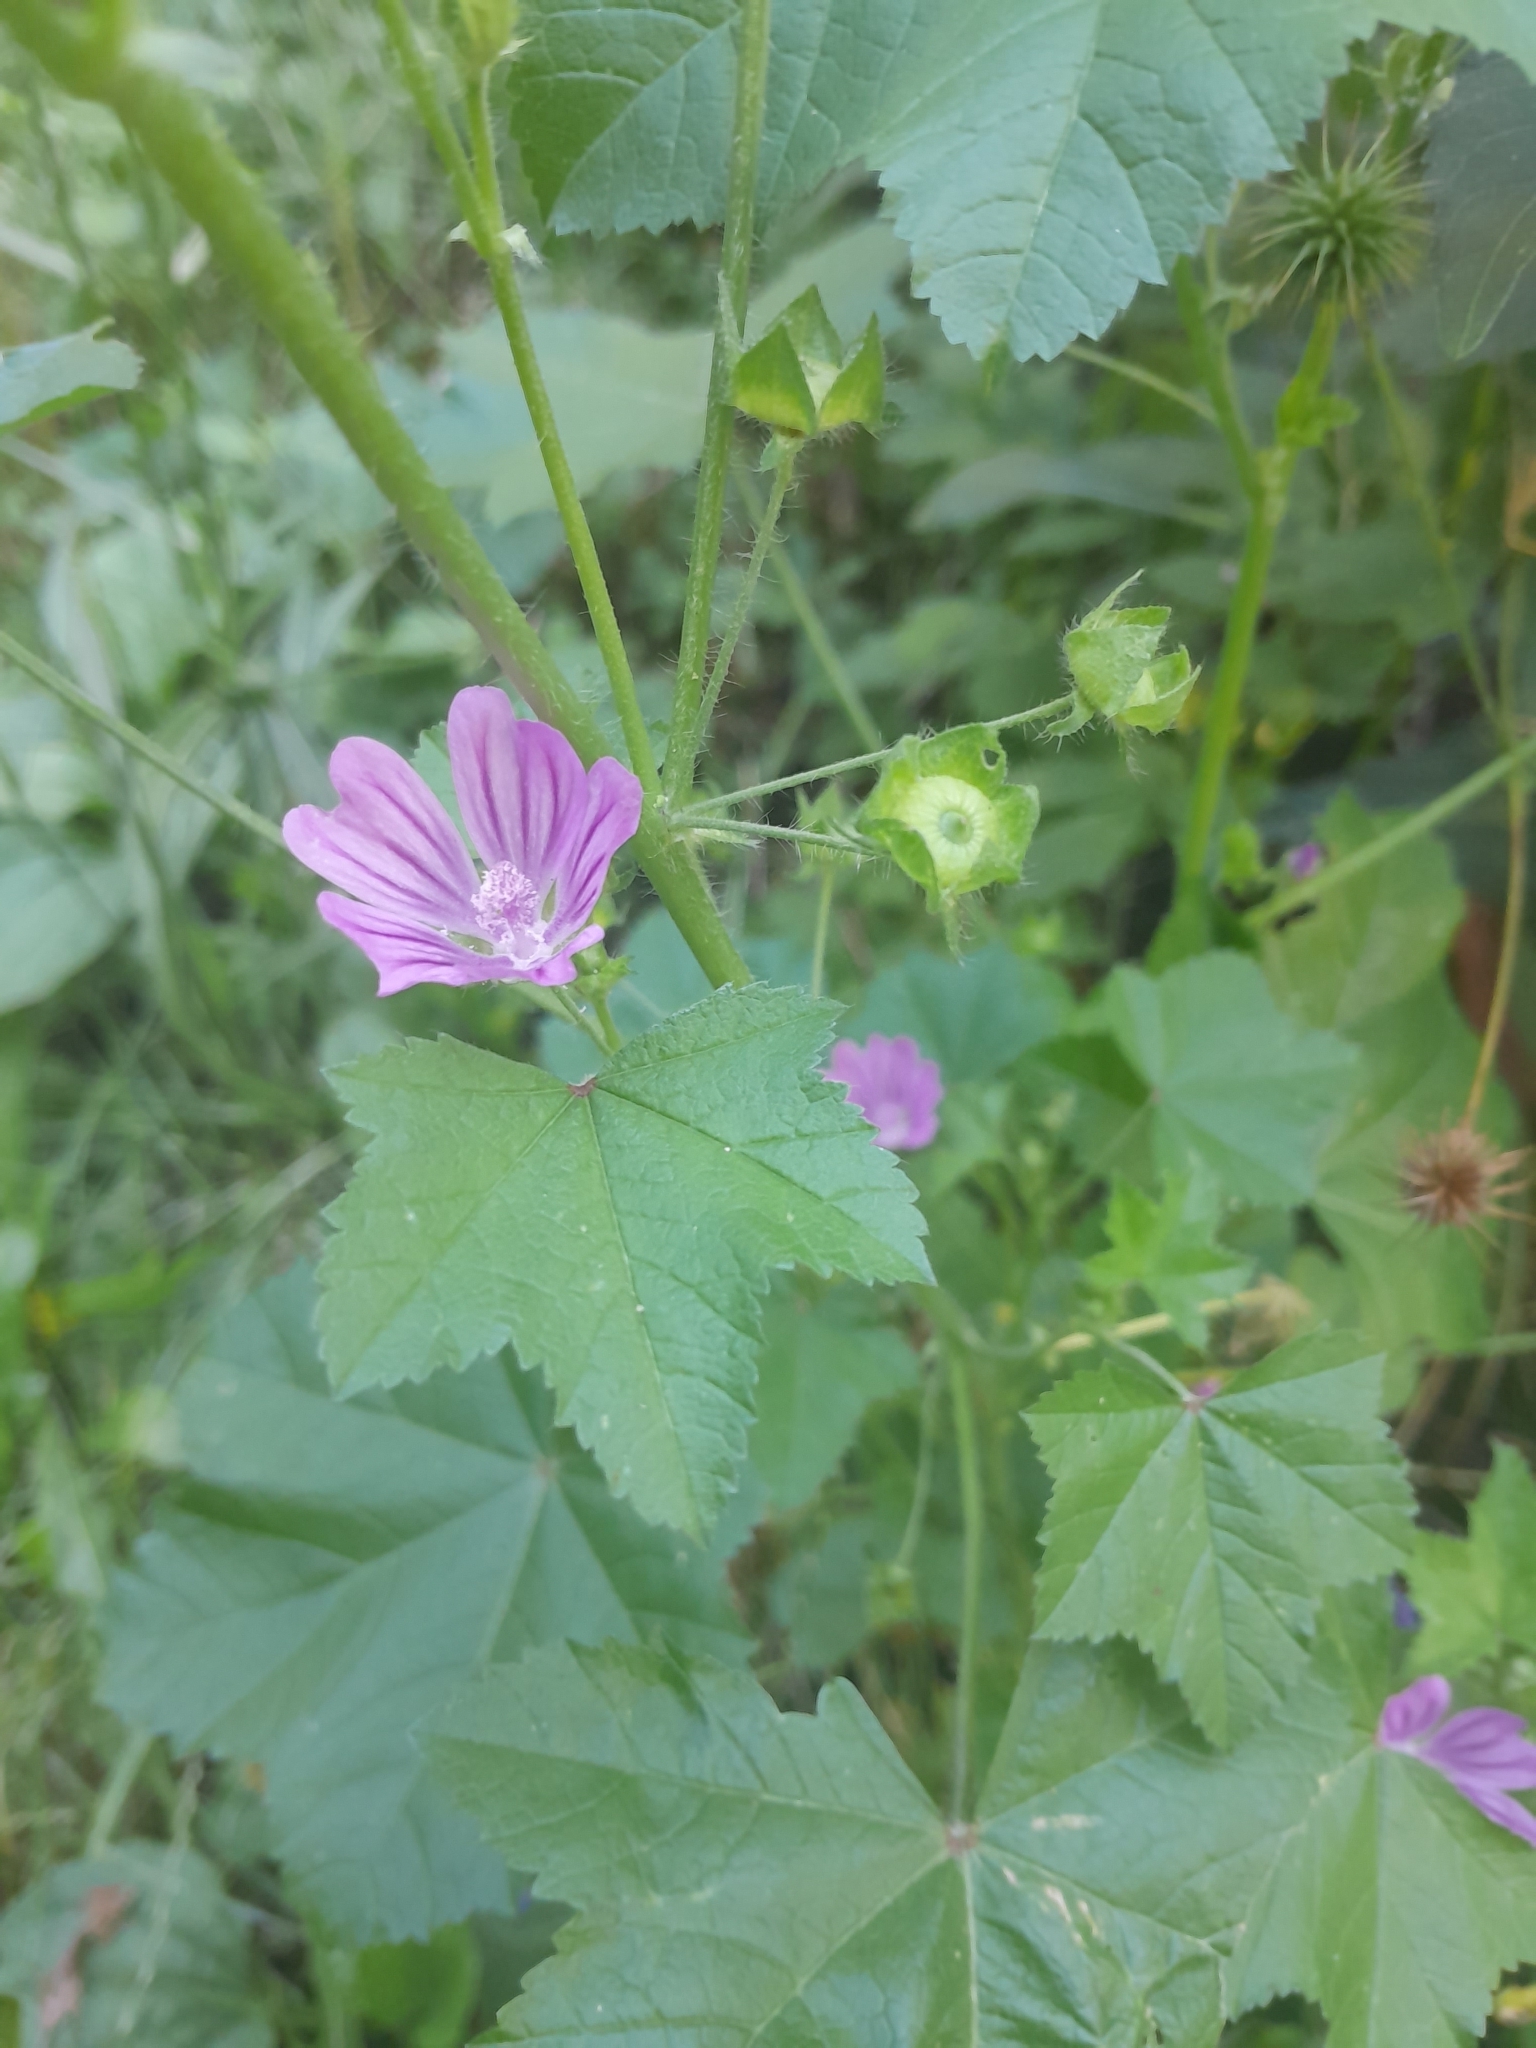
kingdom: Plantae
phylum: Tracheophyta
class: Magnoliopsida
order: Malvales
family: Malvaceae
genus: Malva
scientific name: Malva sylvestris
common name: Common mallow
